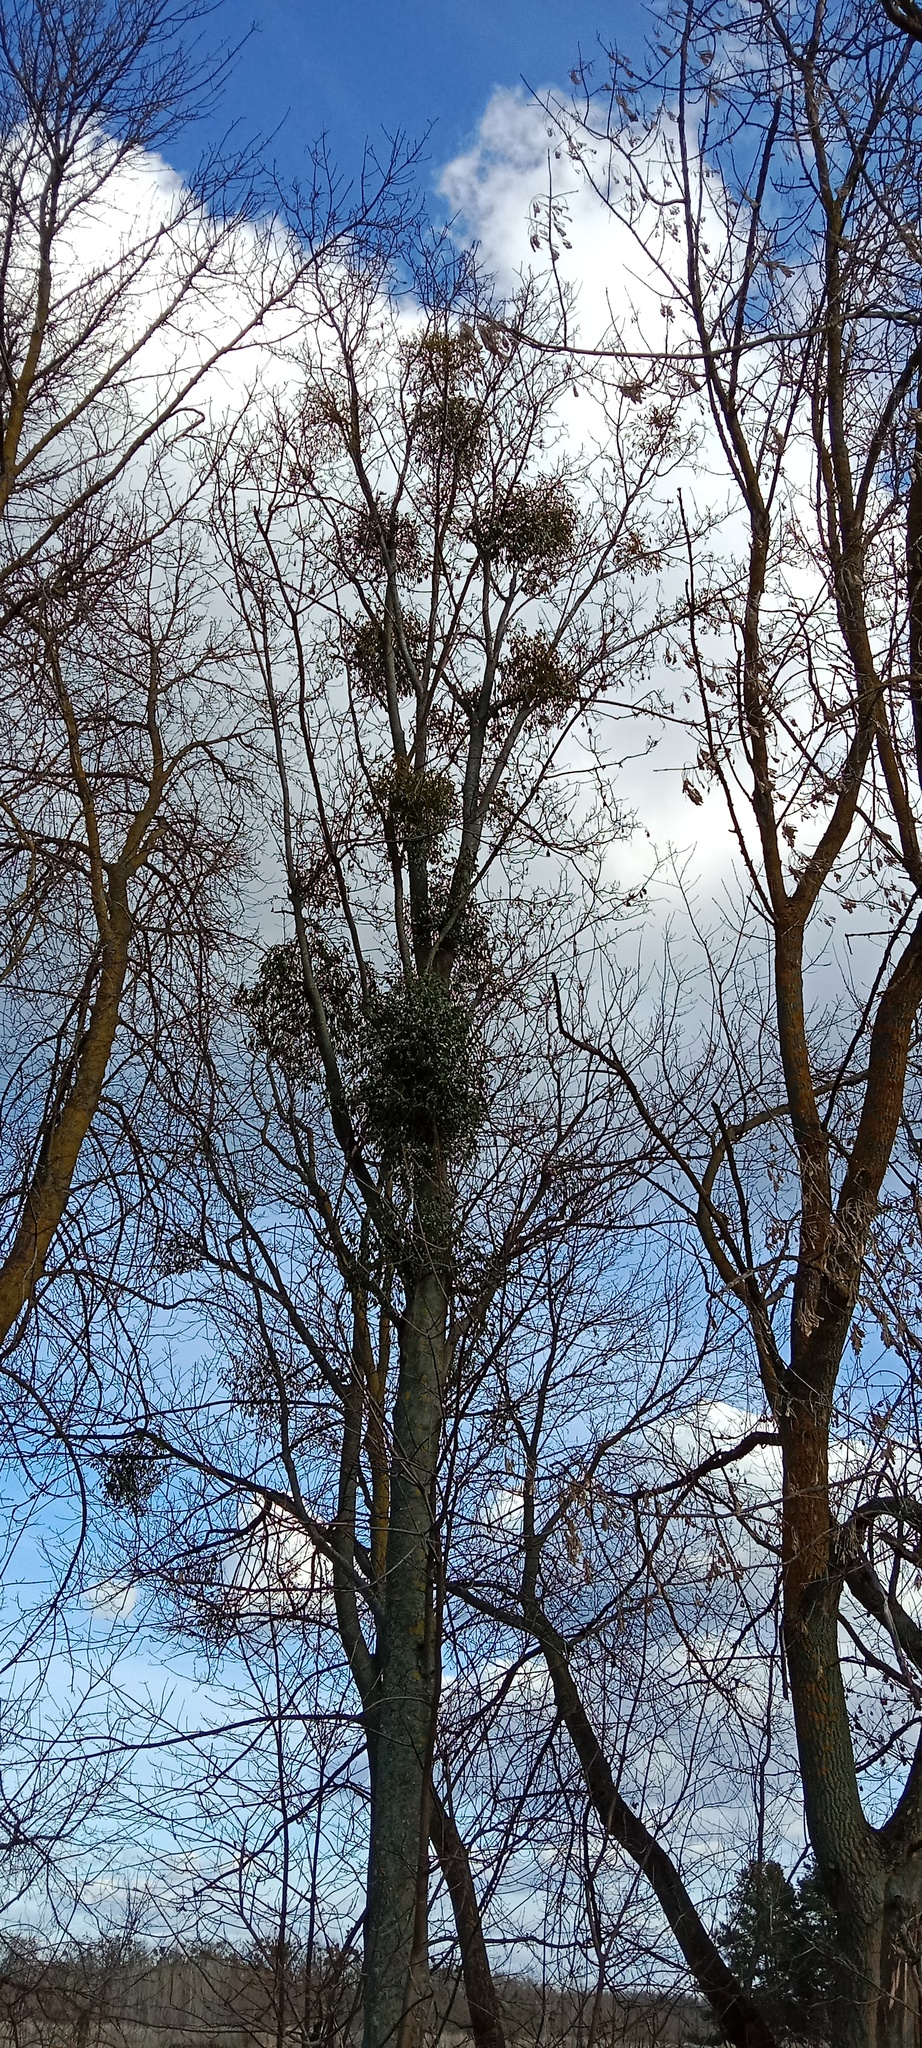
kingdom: Plantae
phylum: Tracheophyta
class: Magnoliopsida
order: Santalales
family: Viscaceae
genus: Viscum
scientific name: Viscum album
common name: Mistletoe
